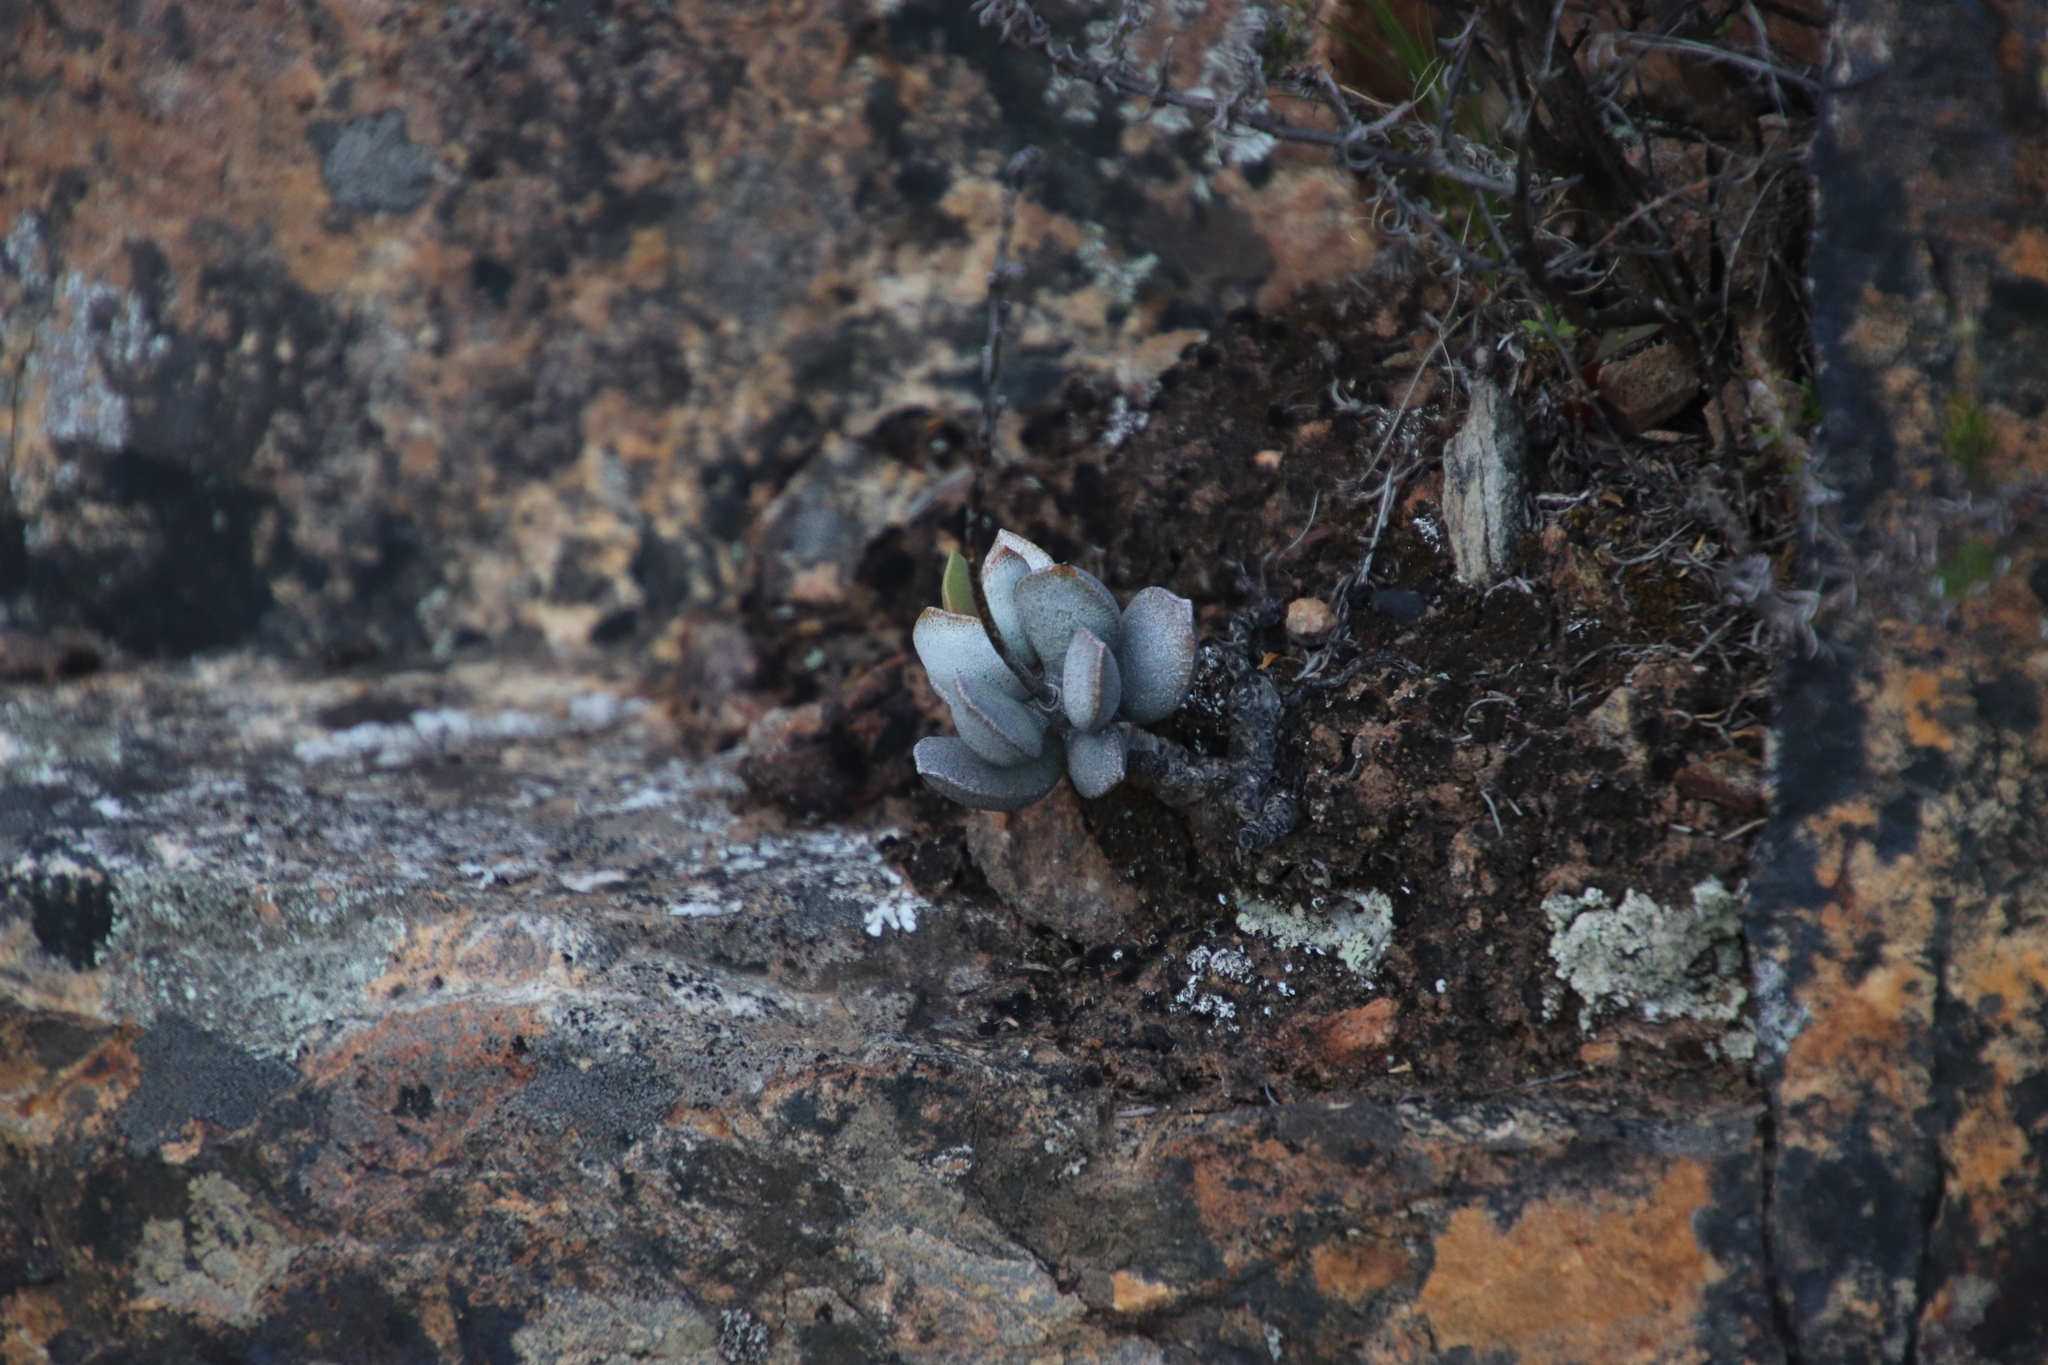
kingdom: Plantae
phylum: Tracheophyta
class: Magnoliopsida
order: Saxifragales
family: Crassulaceae
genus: Adromischus
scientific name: Adromischus hemisphaericus
